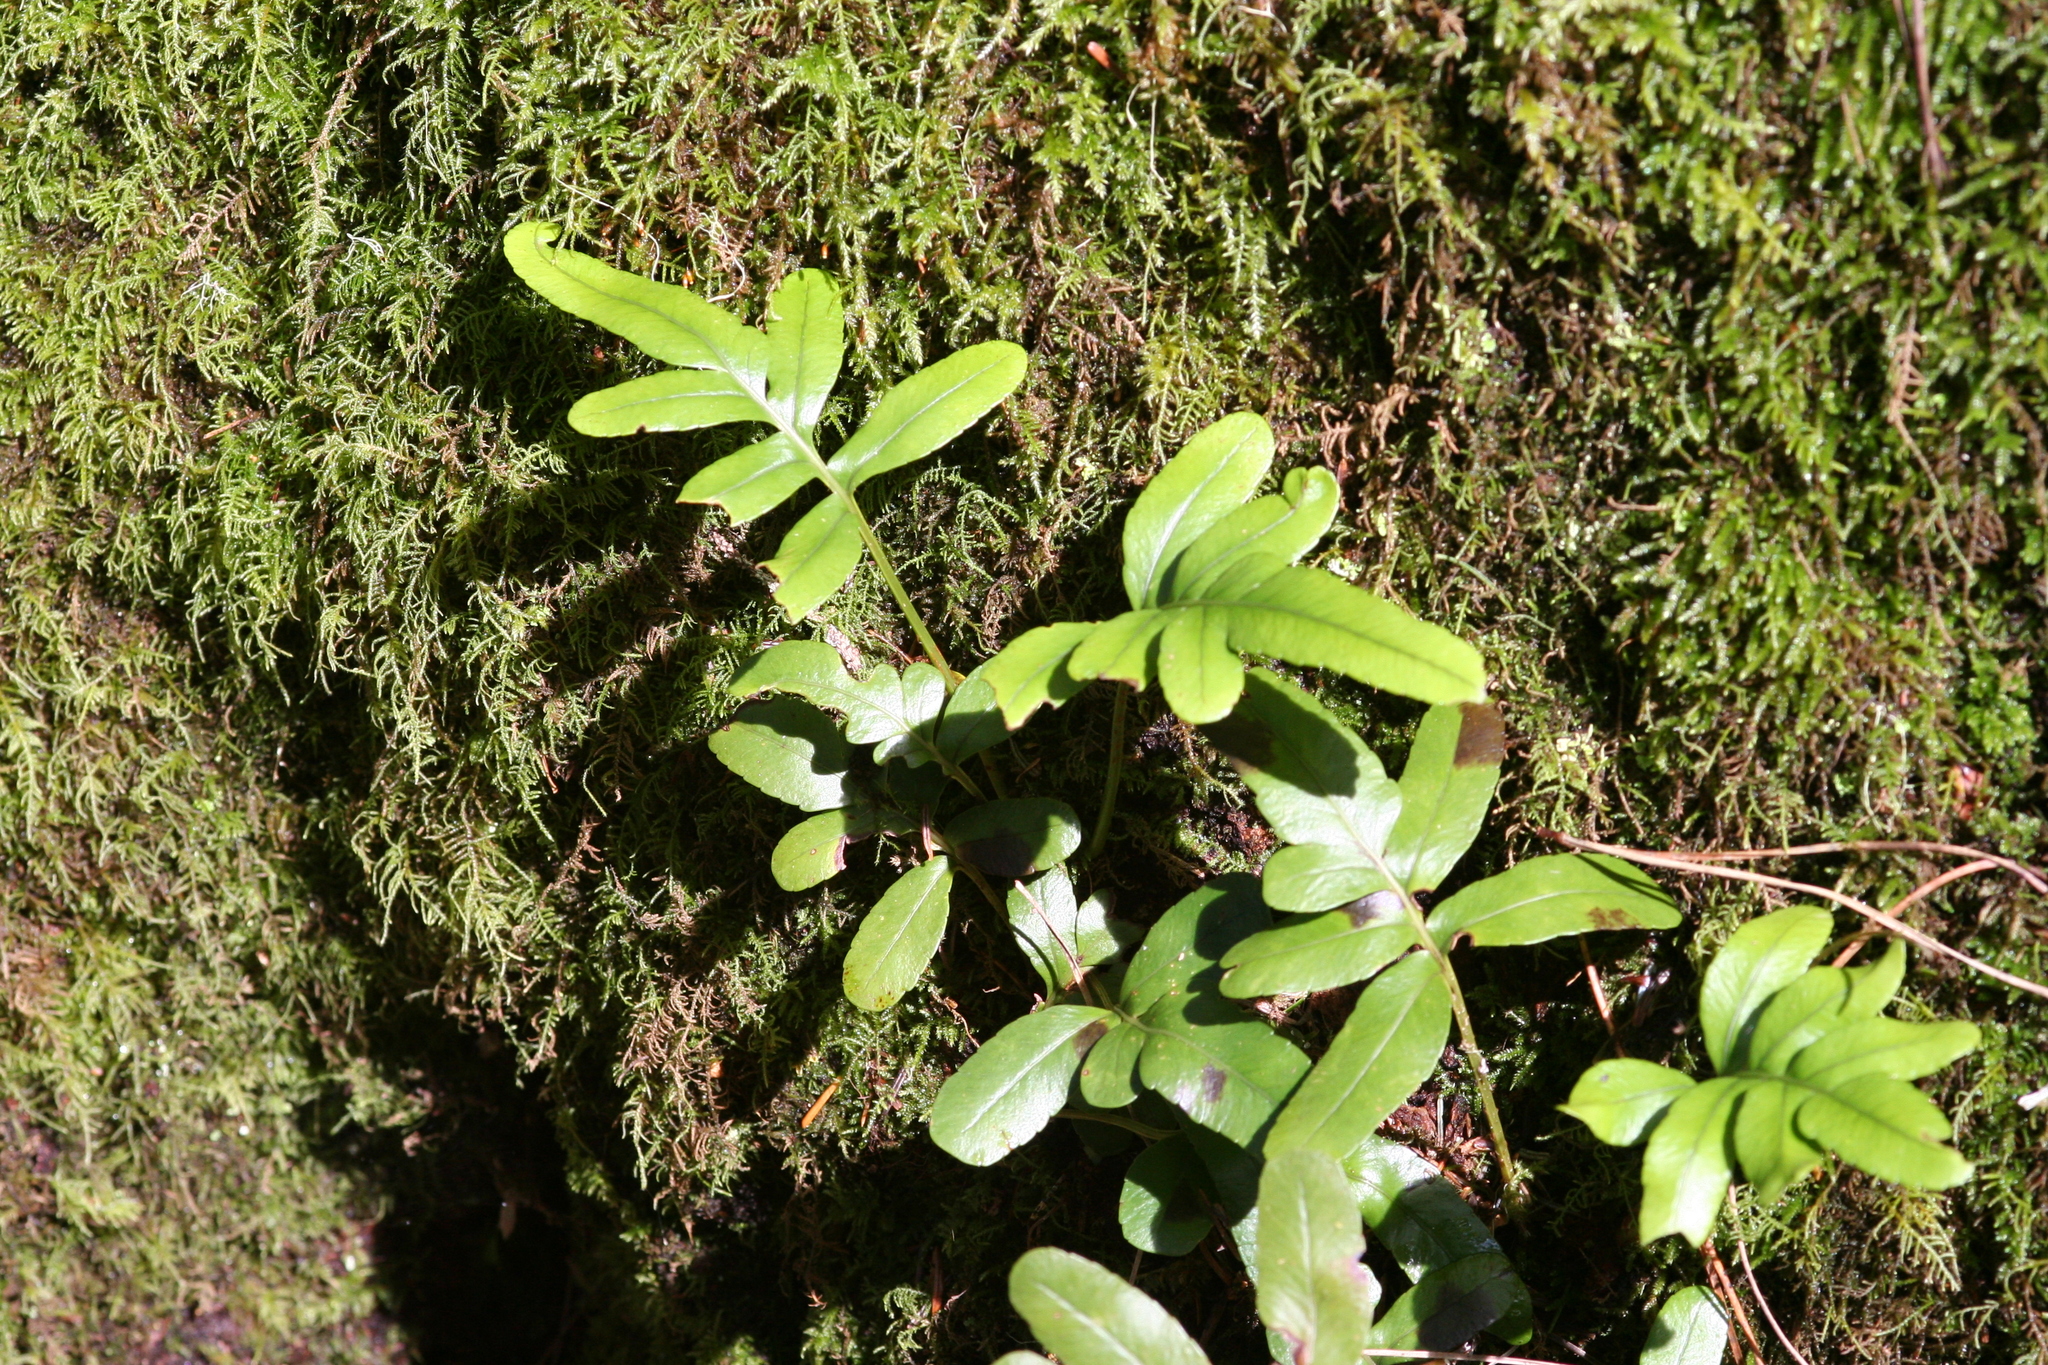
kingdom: Plantae
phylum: Tracheophyta
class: Polypodiopsida
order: Polypodiales
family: Polypodiaceae
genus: Polypodium
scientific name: Polypodium scouleri
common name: Scouler's polypody
